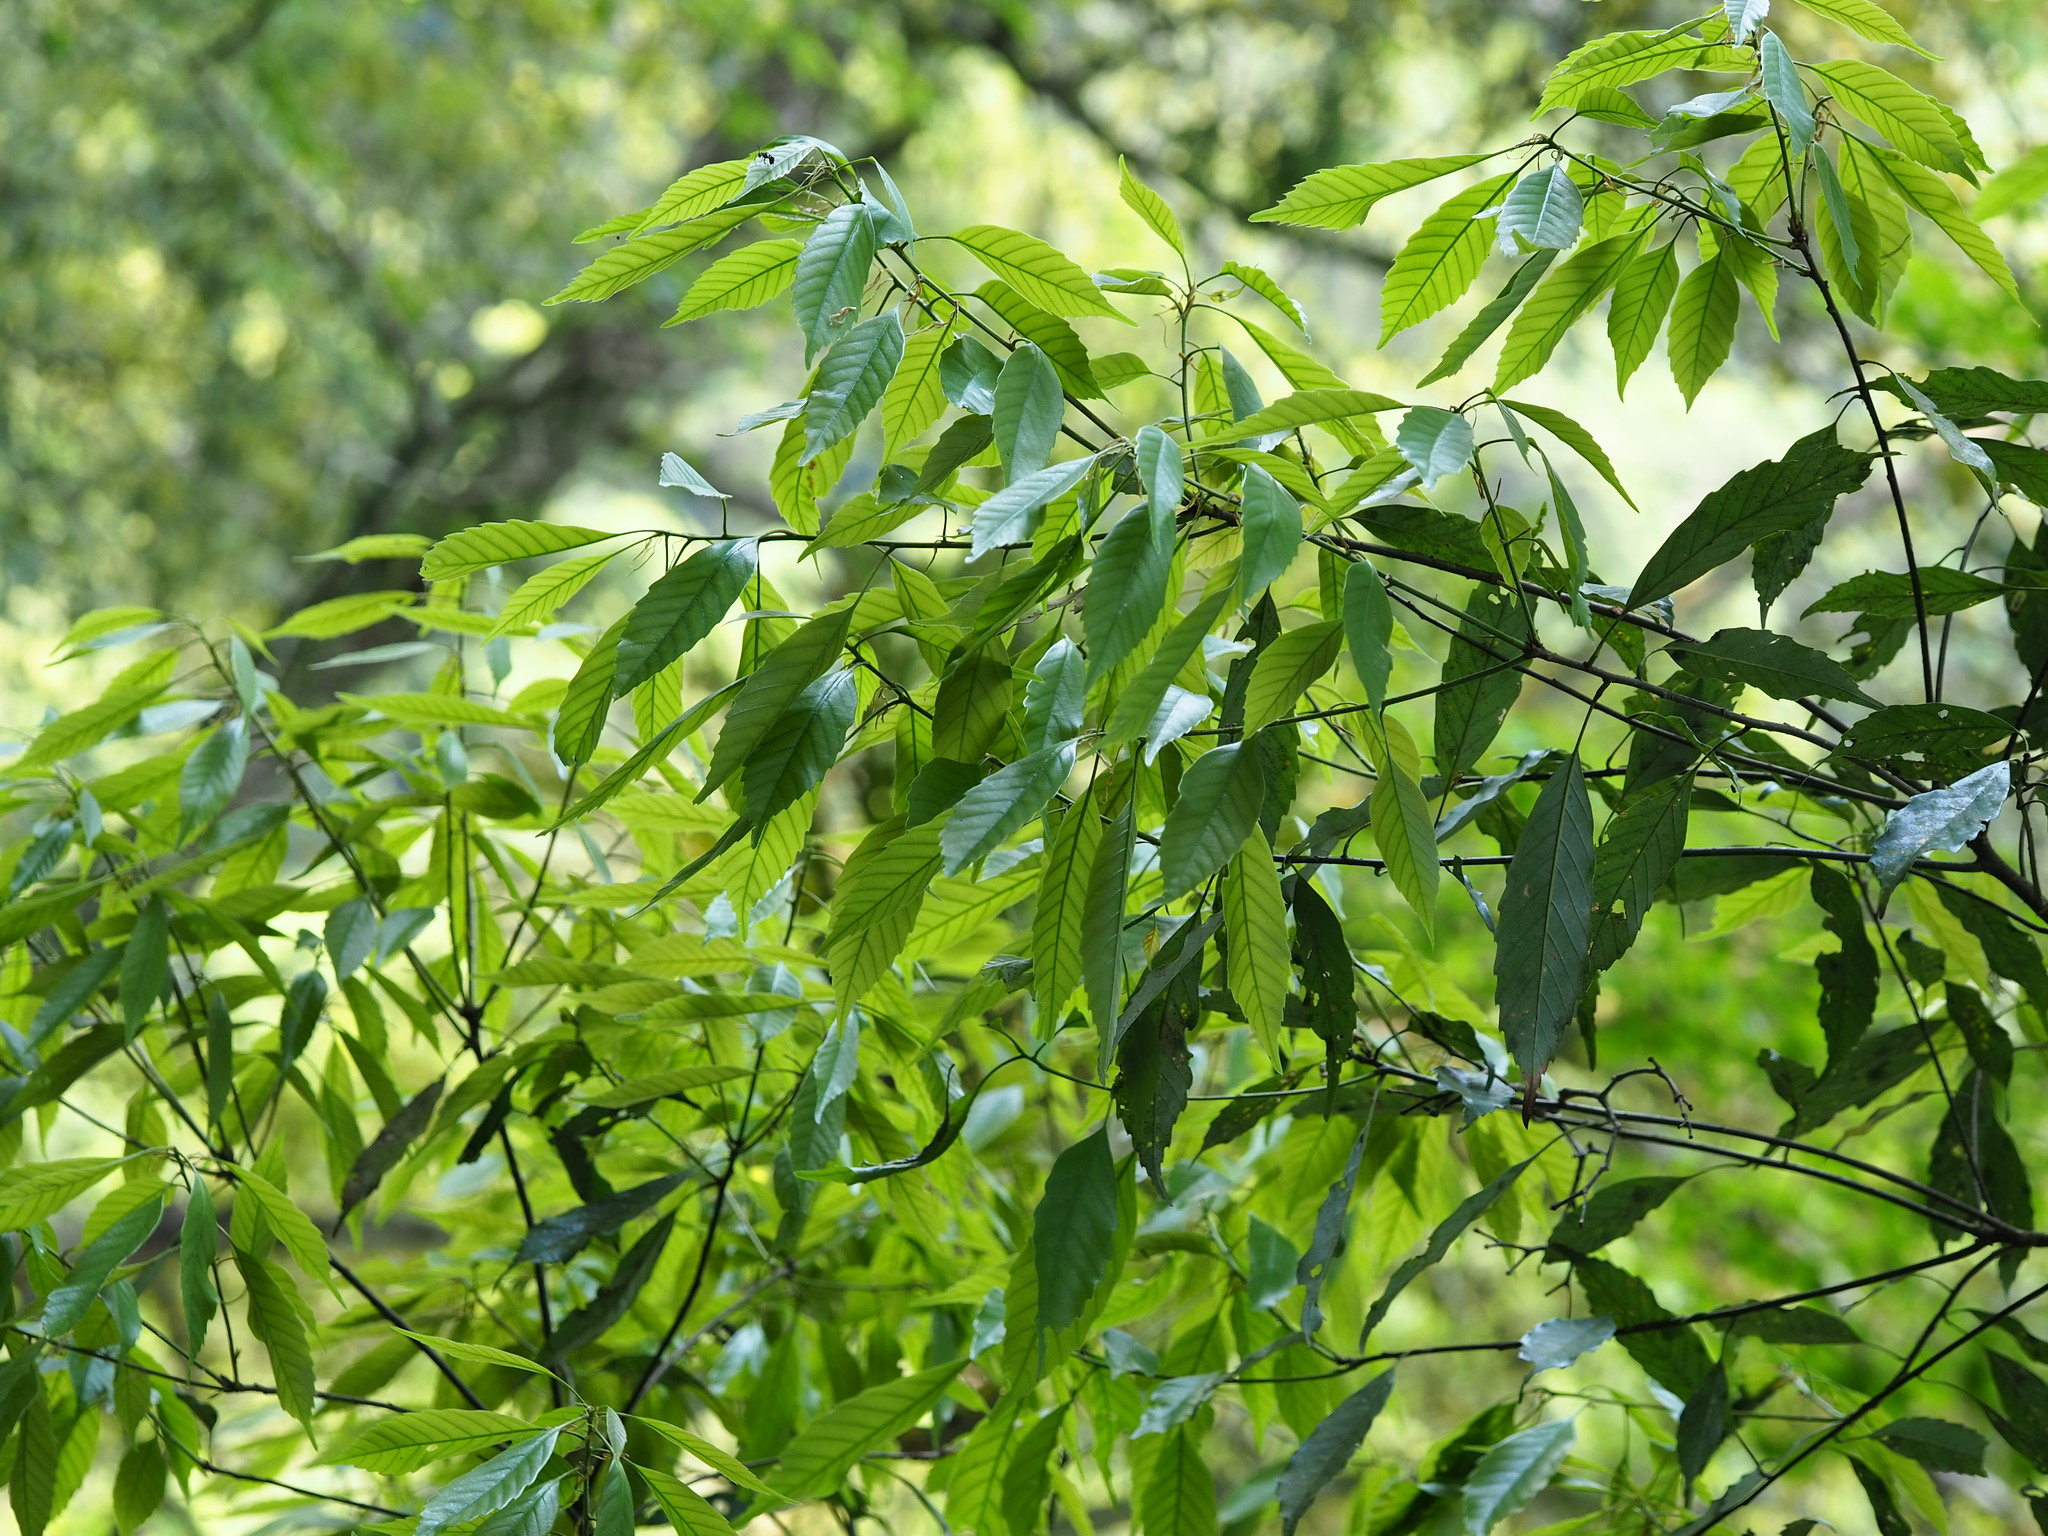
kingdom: Plantae
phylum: Tracheophyta
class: Magnoliopsida
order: Fagales
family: Fagaceae
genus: Quercus
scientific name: Quercus glauca
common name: Ring-cup oak
